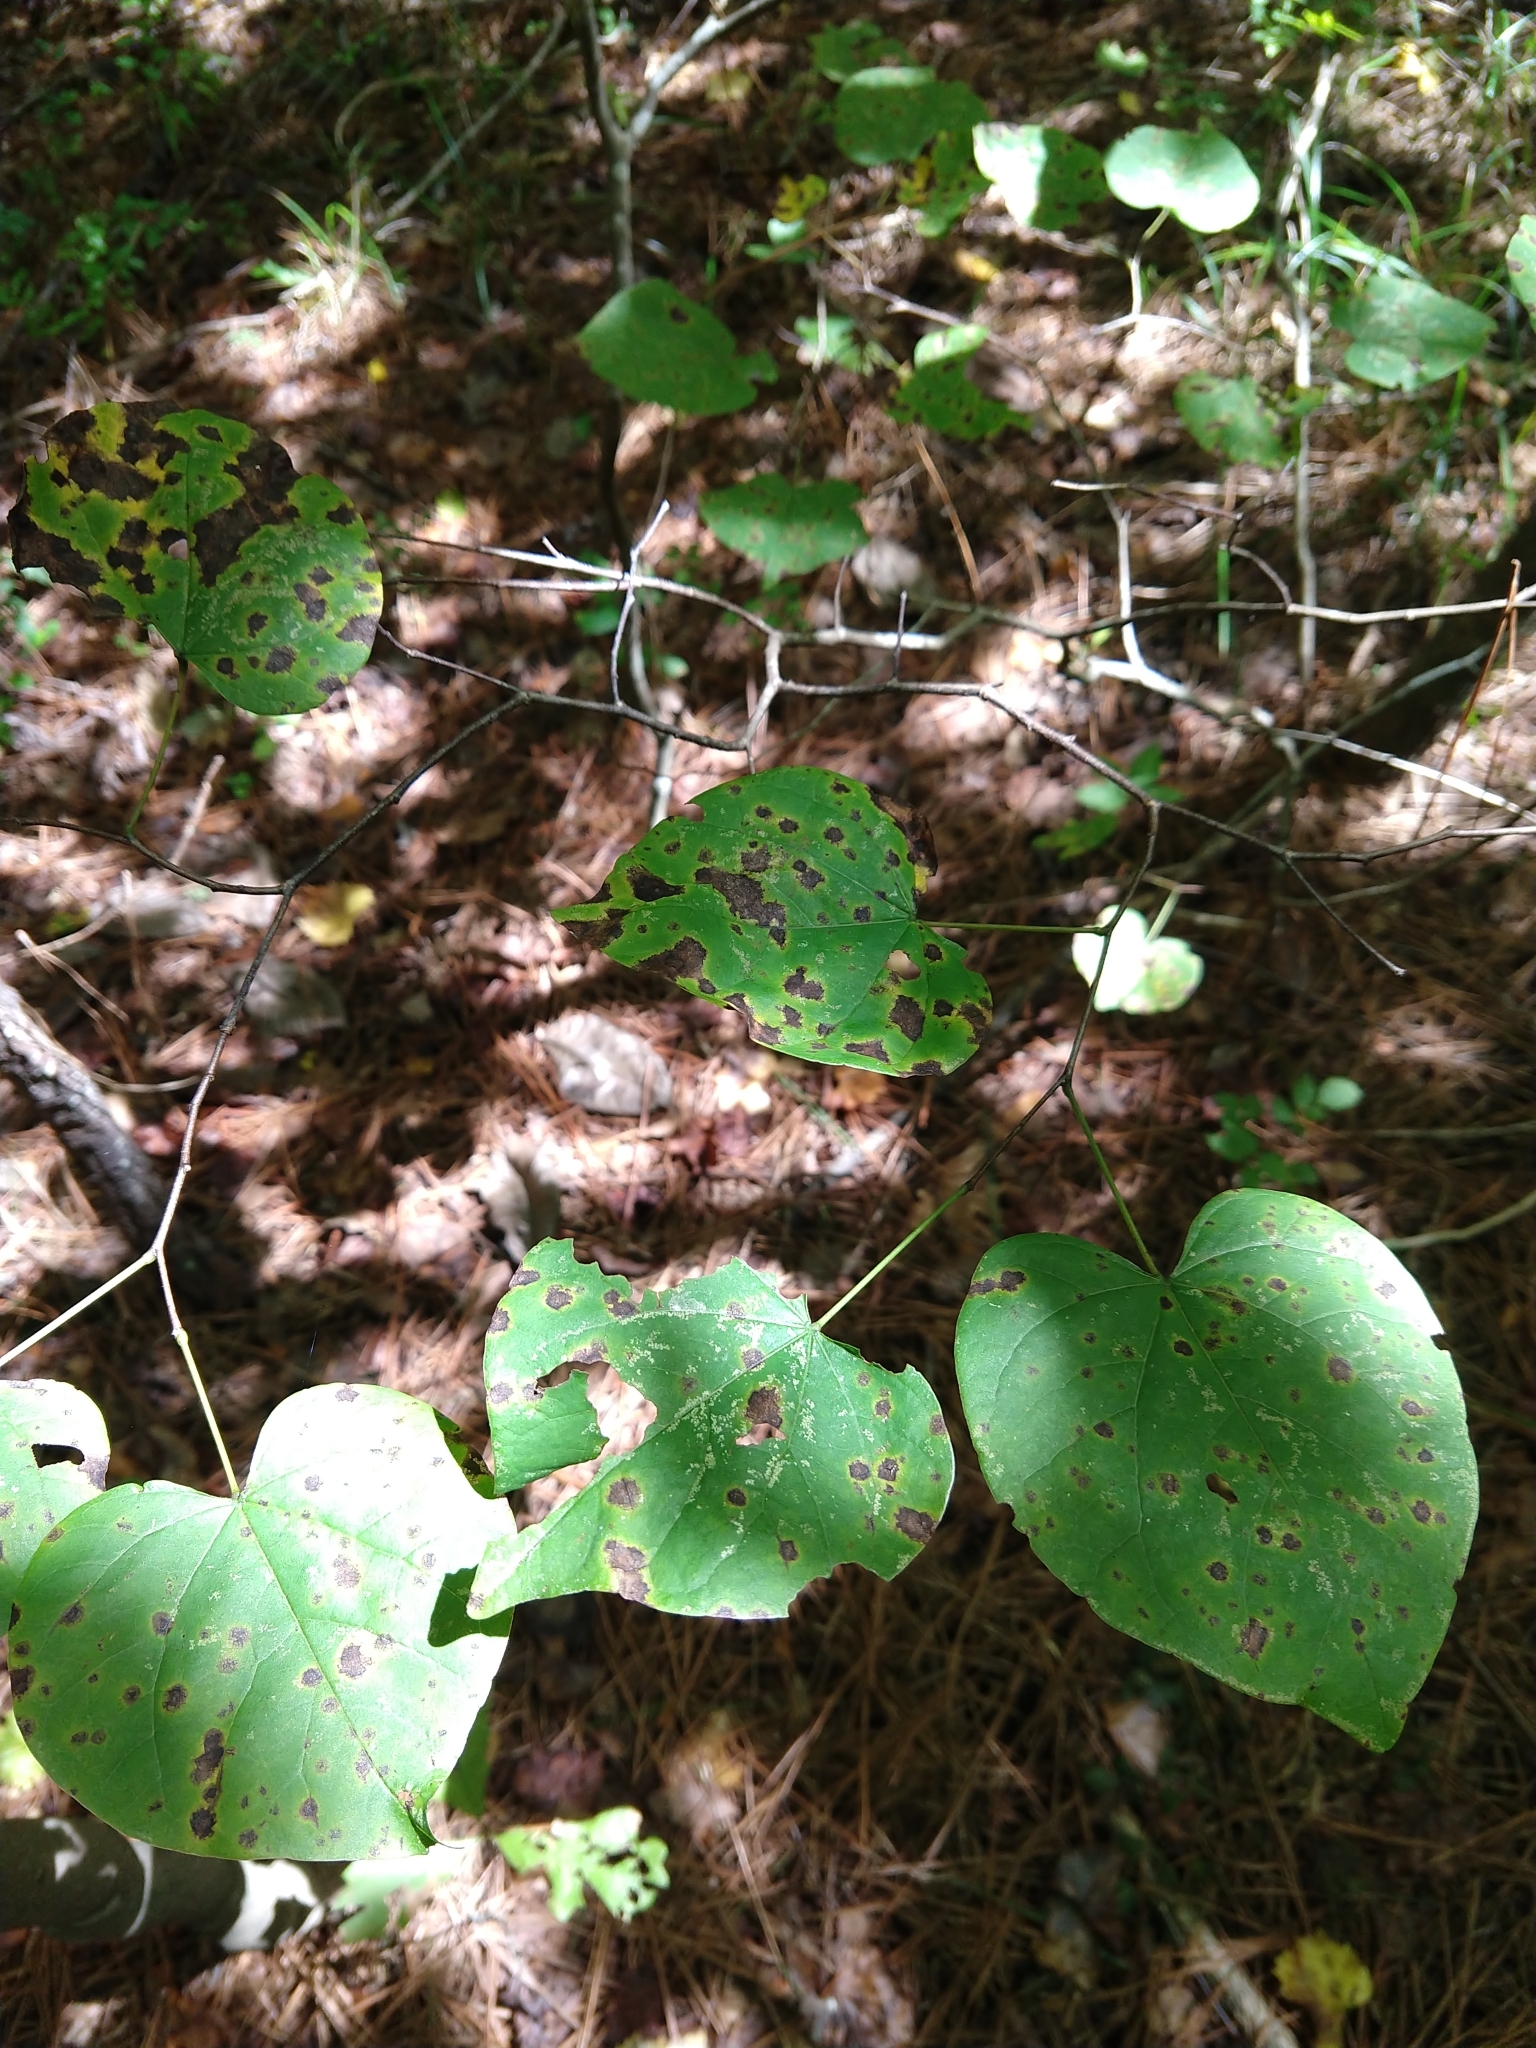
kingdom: Plantae
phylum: Tracheophyta
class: Magnoliopsida
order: Fabales
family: Fabaceae
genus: Cercis
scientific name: Cercis canadensis
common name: Eastern redbud
